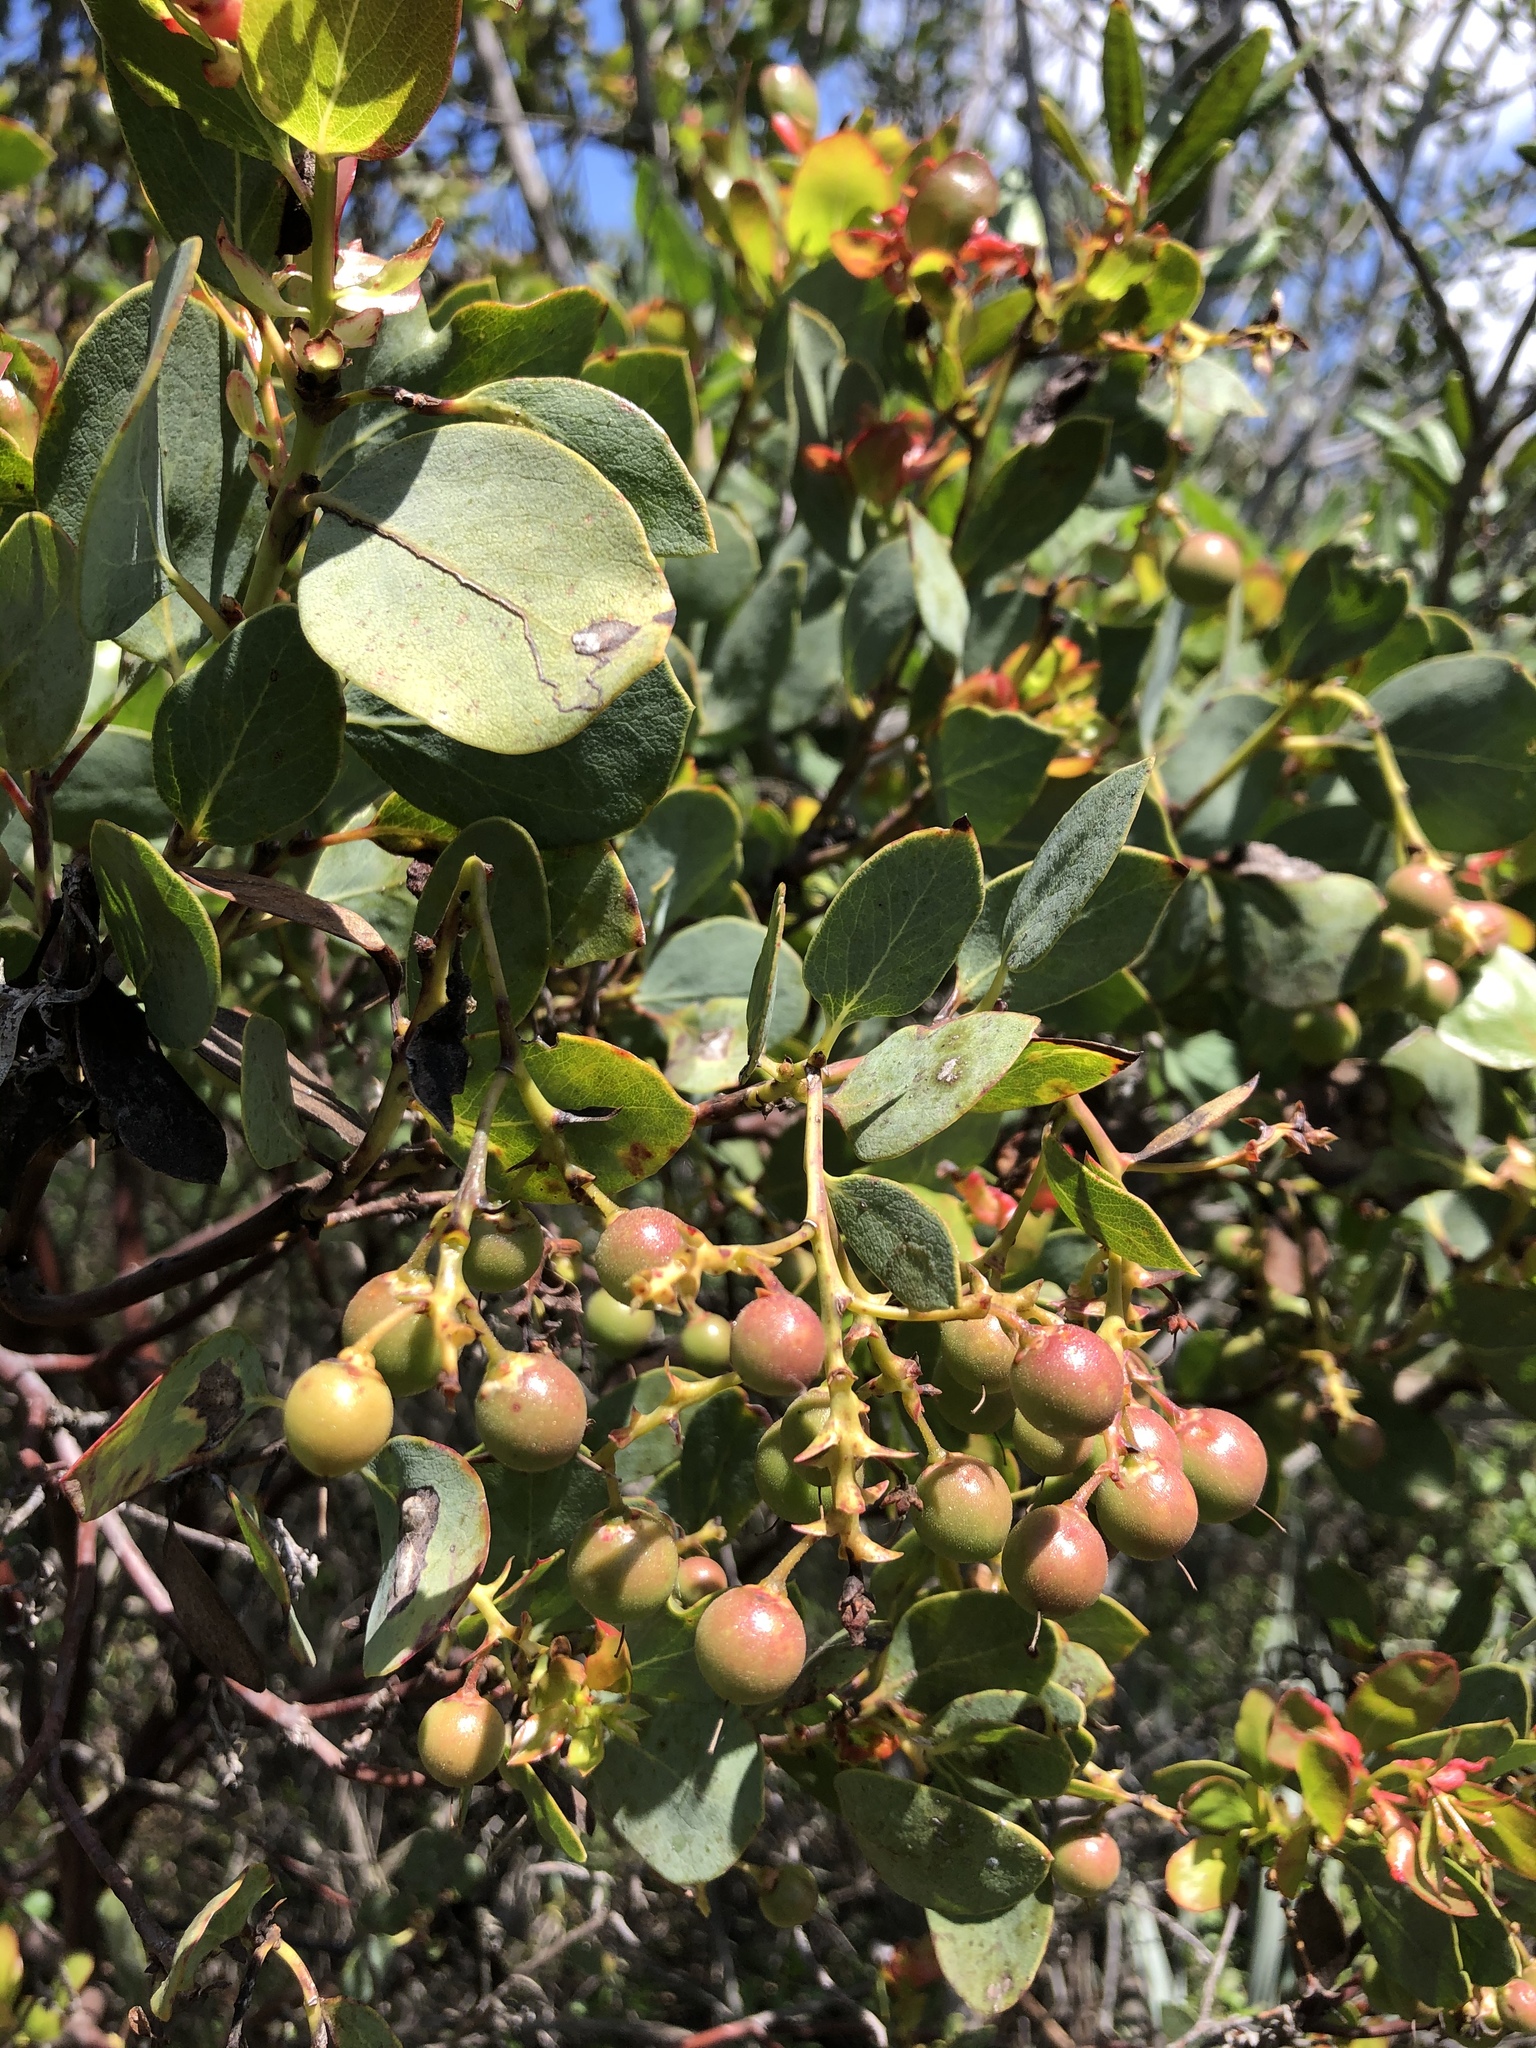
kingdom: Plantae
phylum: Tracheophyta
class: Magnoliopsida
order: Ericales
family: Ericaceae
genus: Arctostaphylos
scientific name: Arctostaphylos glauca
